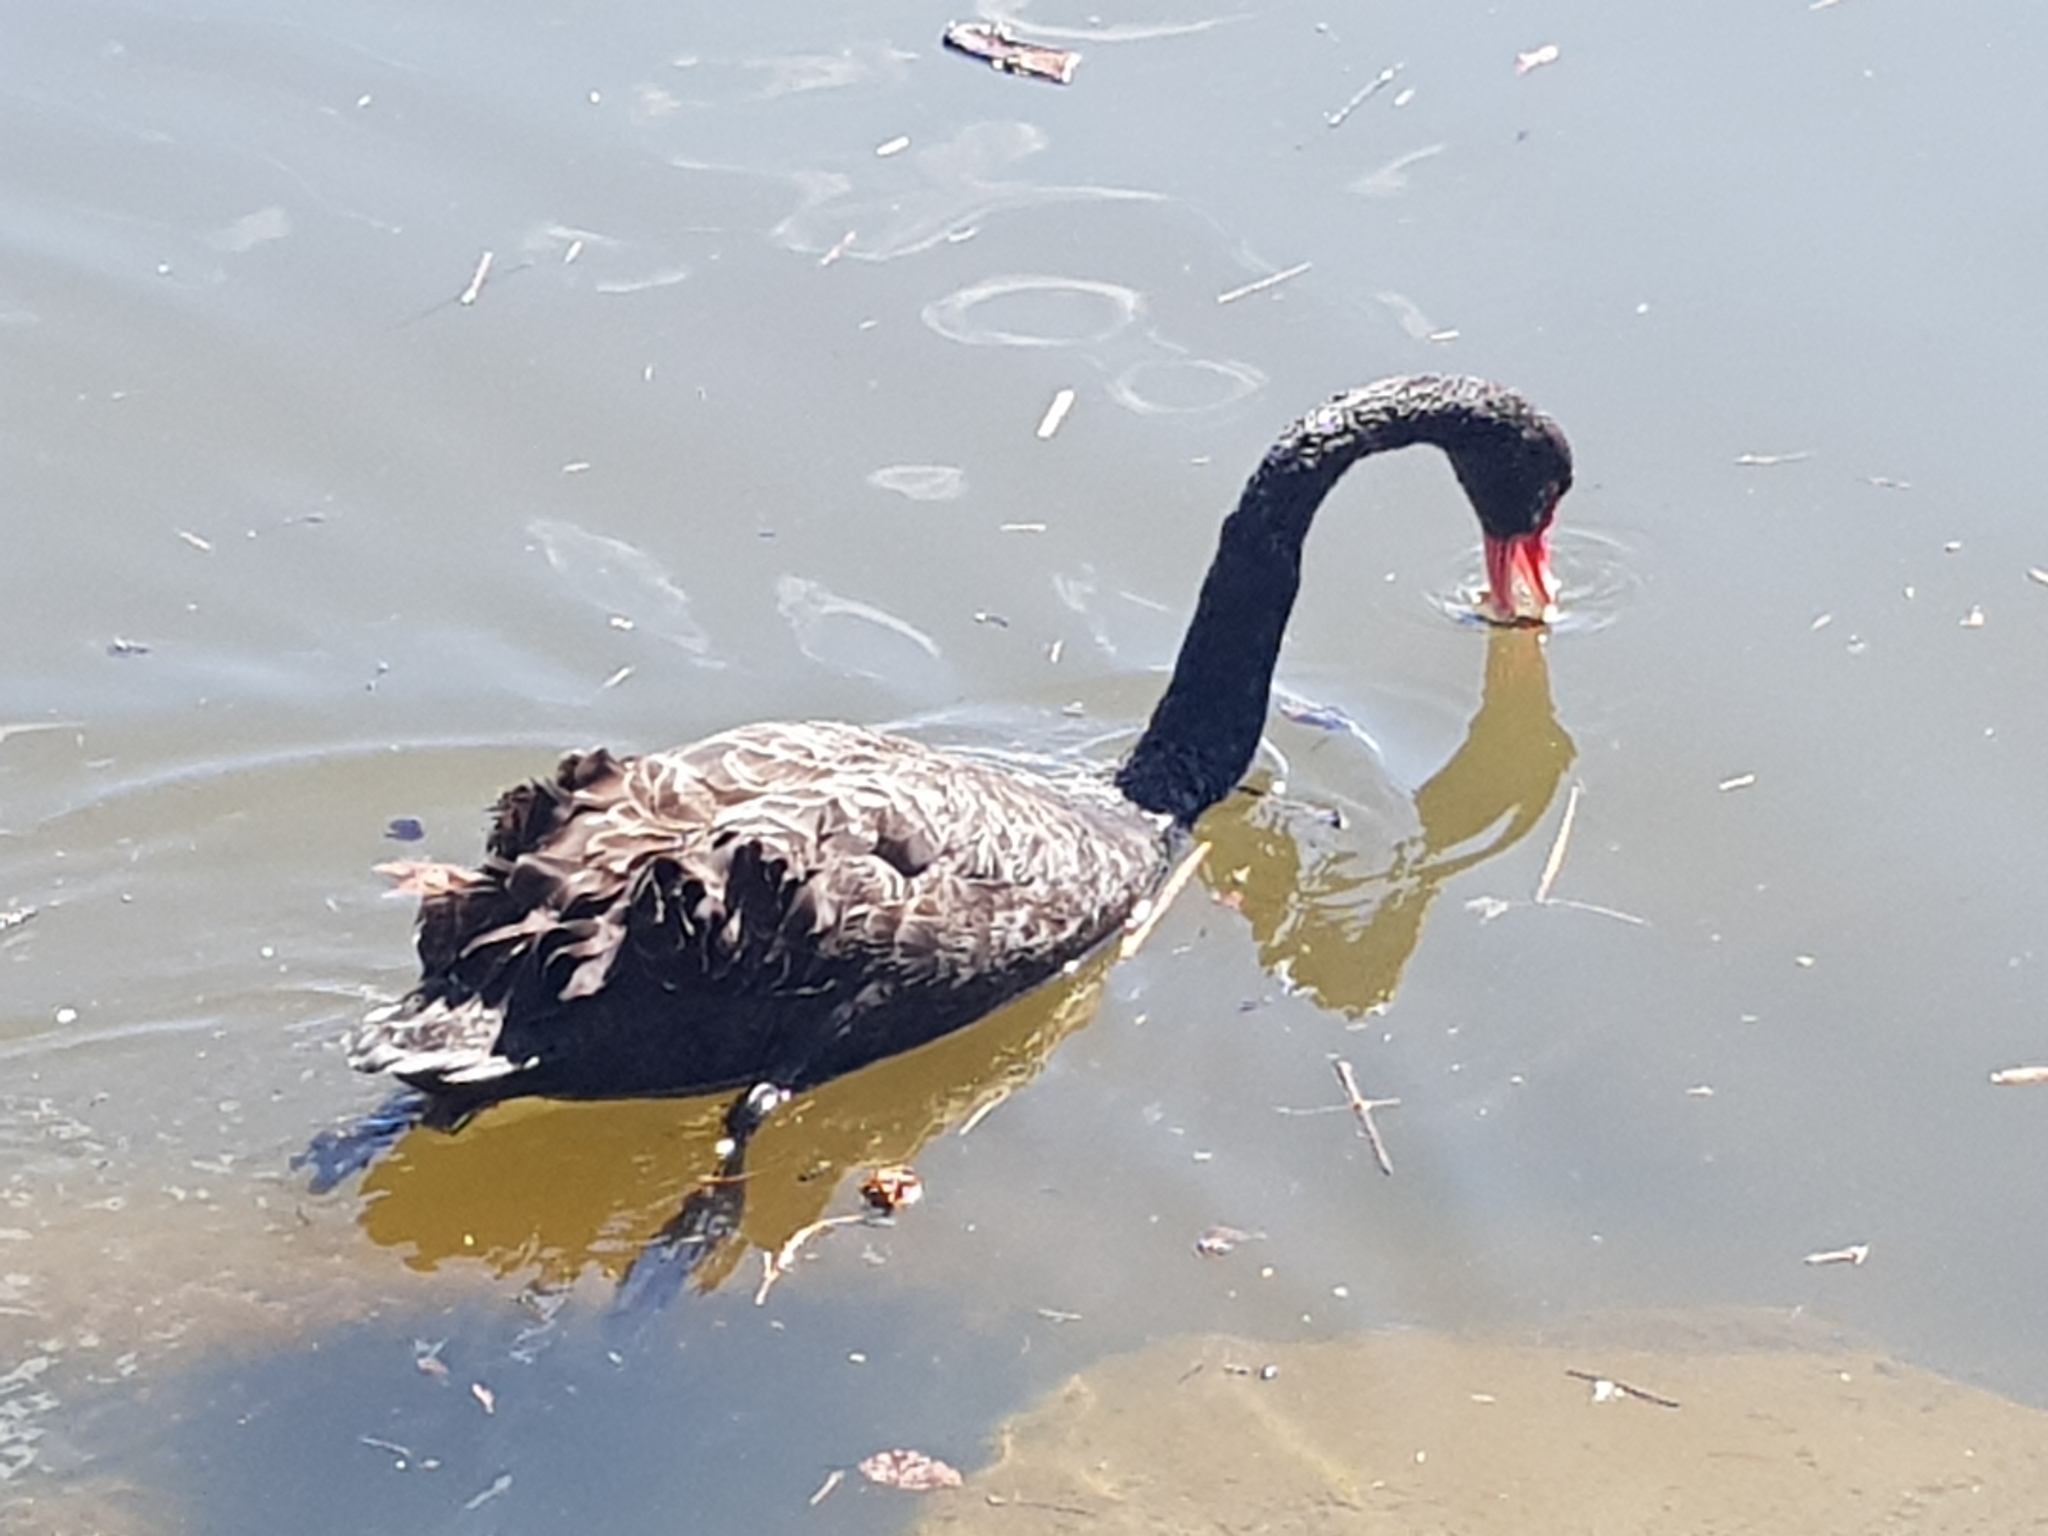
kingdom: Animalia
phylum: Chordata
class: Aves
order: Anseriformes
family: Anatidae
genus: Cygnus
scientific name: Cygnus atratus
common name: Black swan
